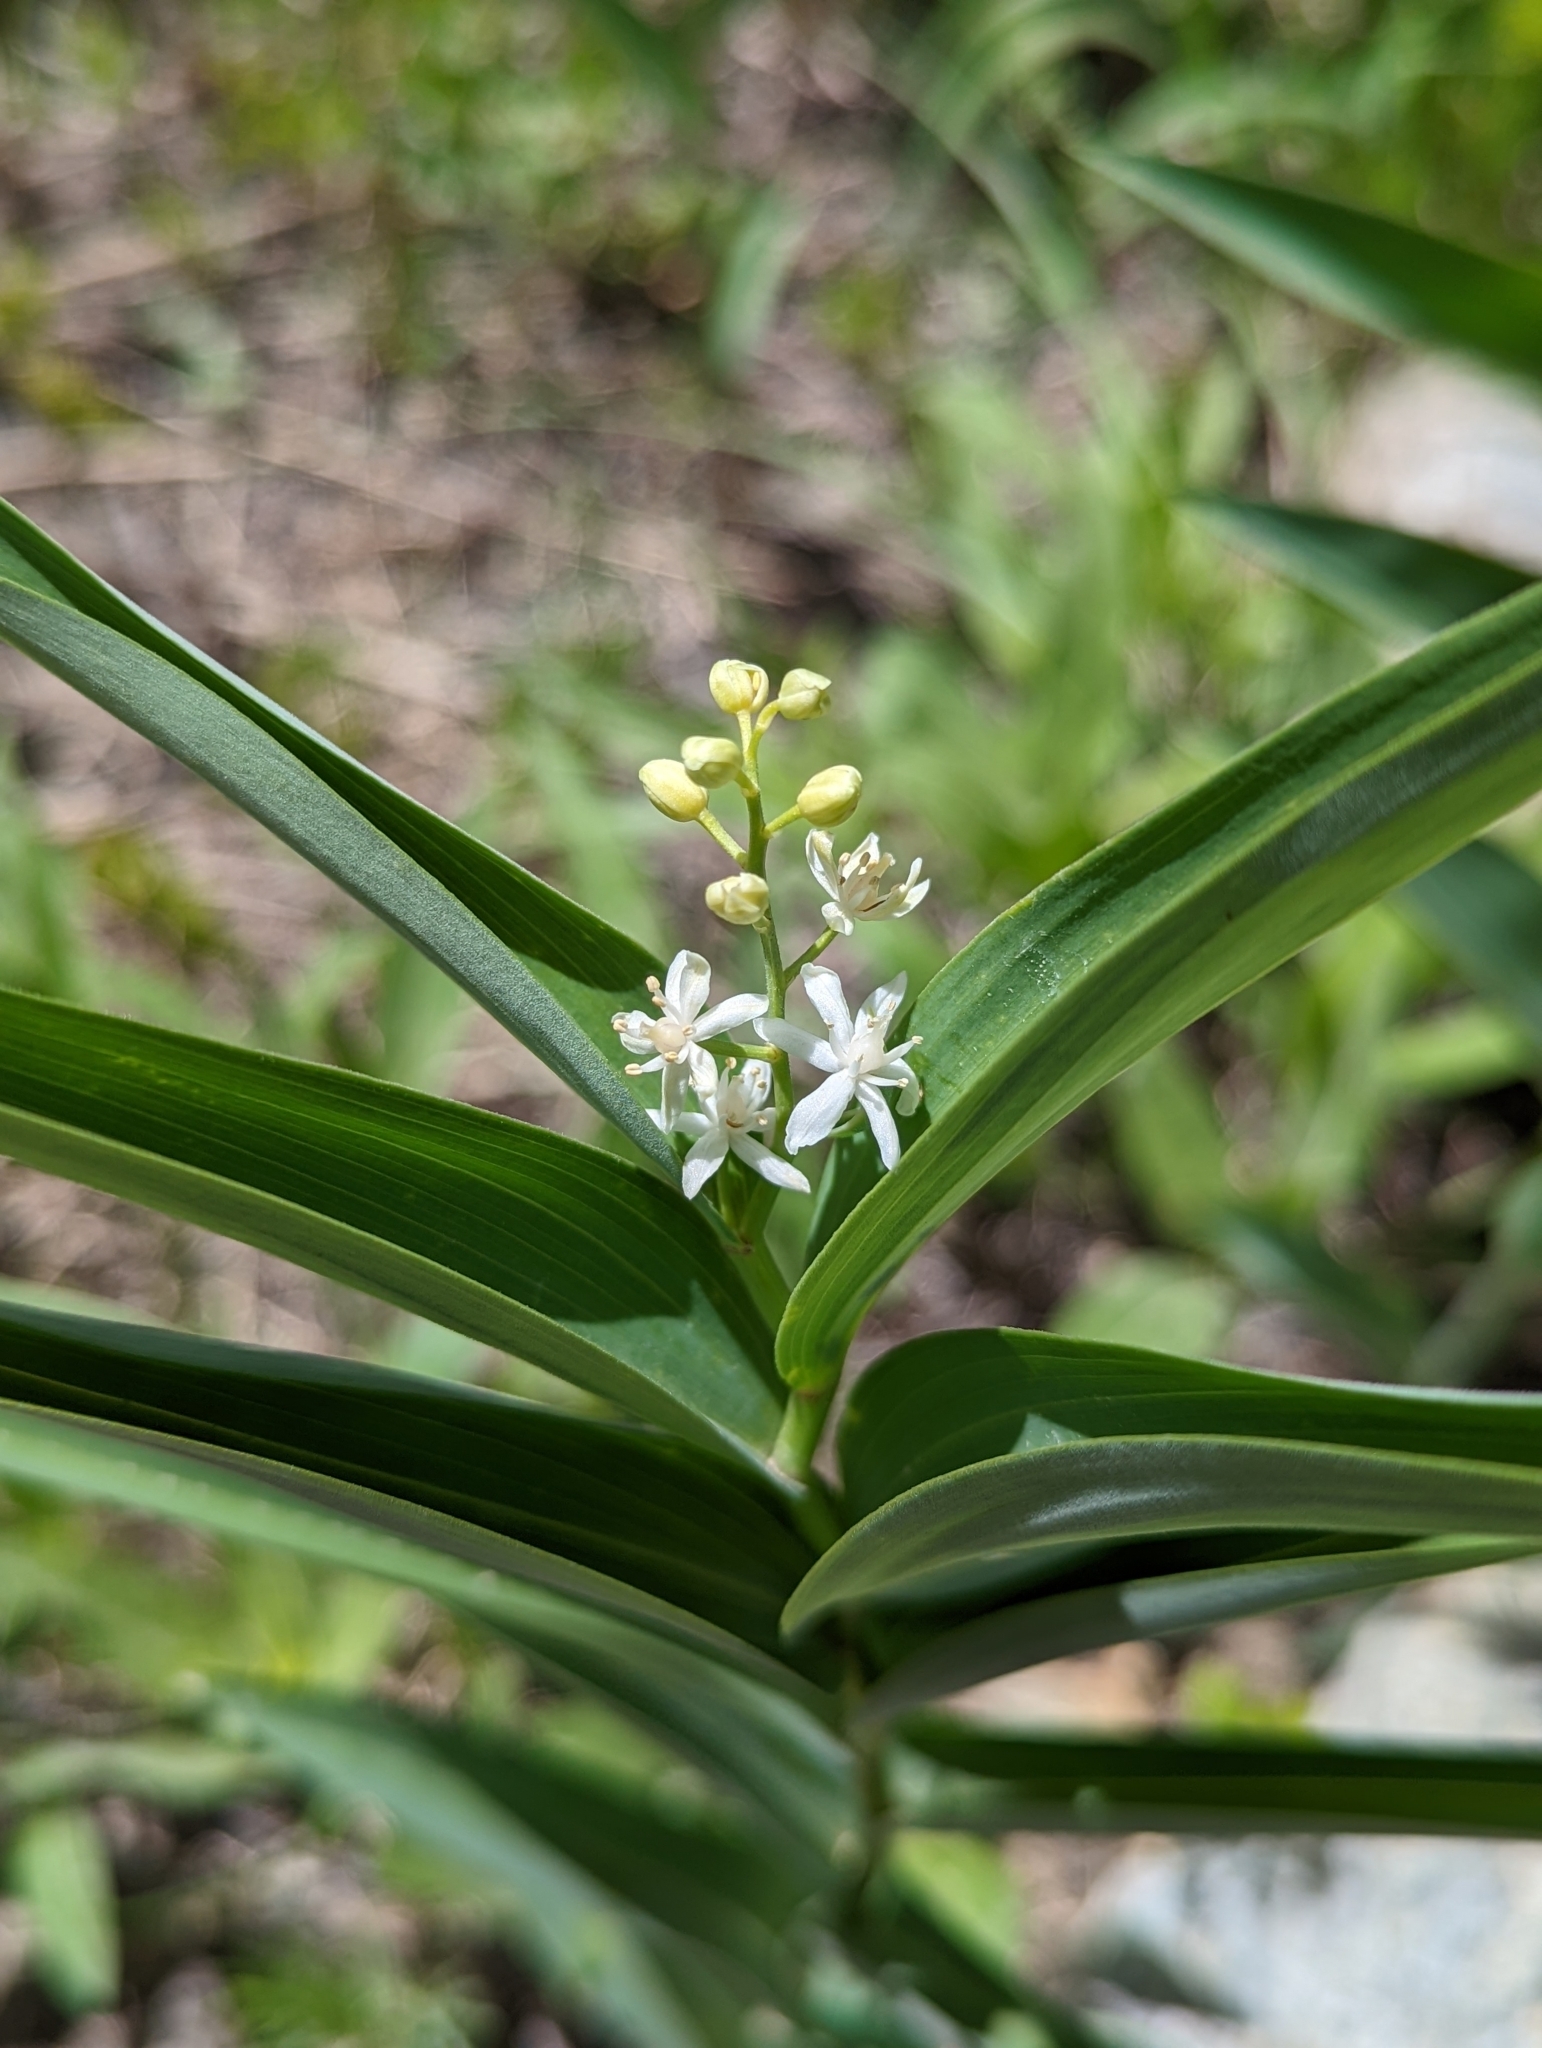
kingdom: Plantae
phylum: Tracheophyta
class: Liliopsida
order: Asparagales
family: Asparagaceae
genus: Maianthemum
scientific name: Maianthemum stellatum
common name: Little false solomon's seal
